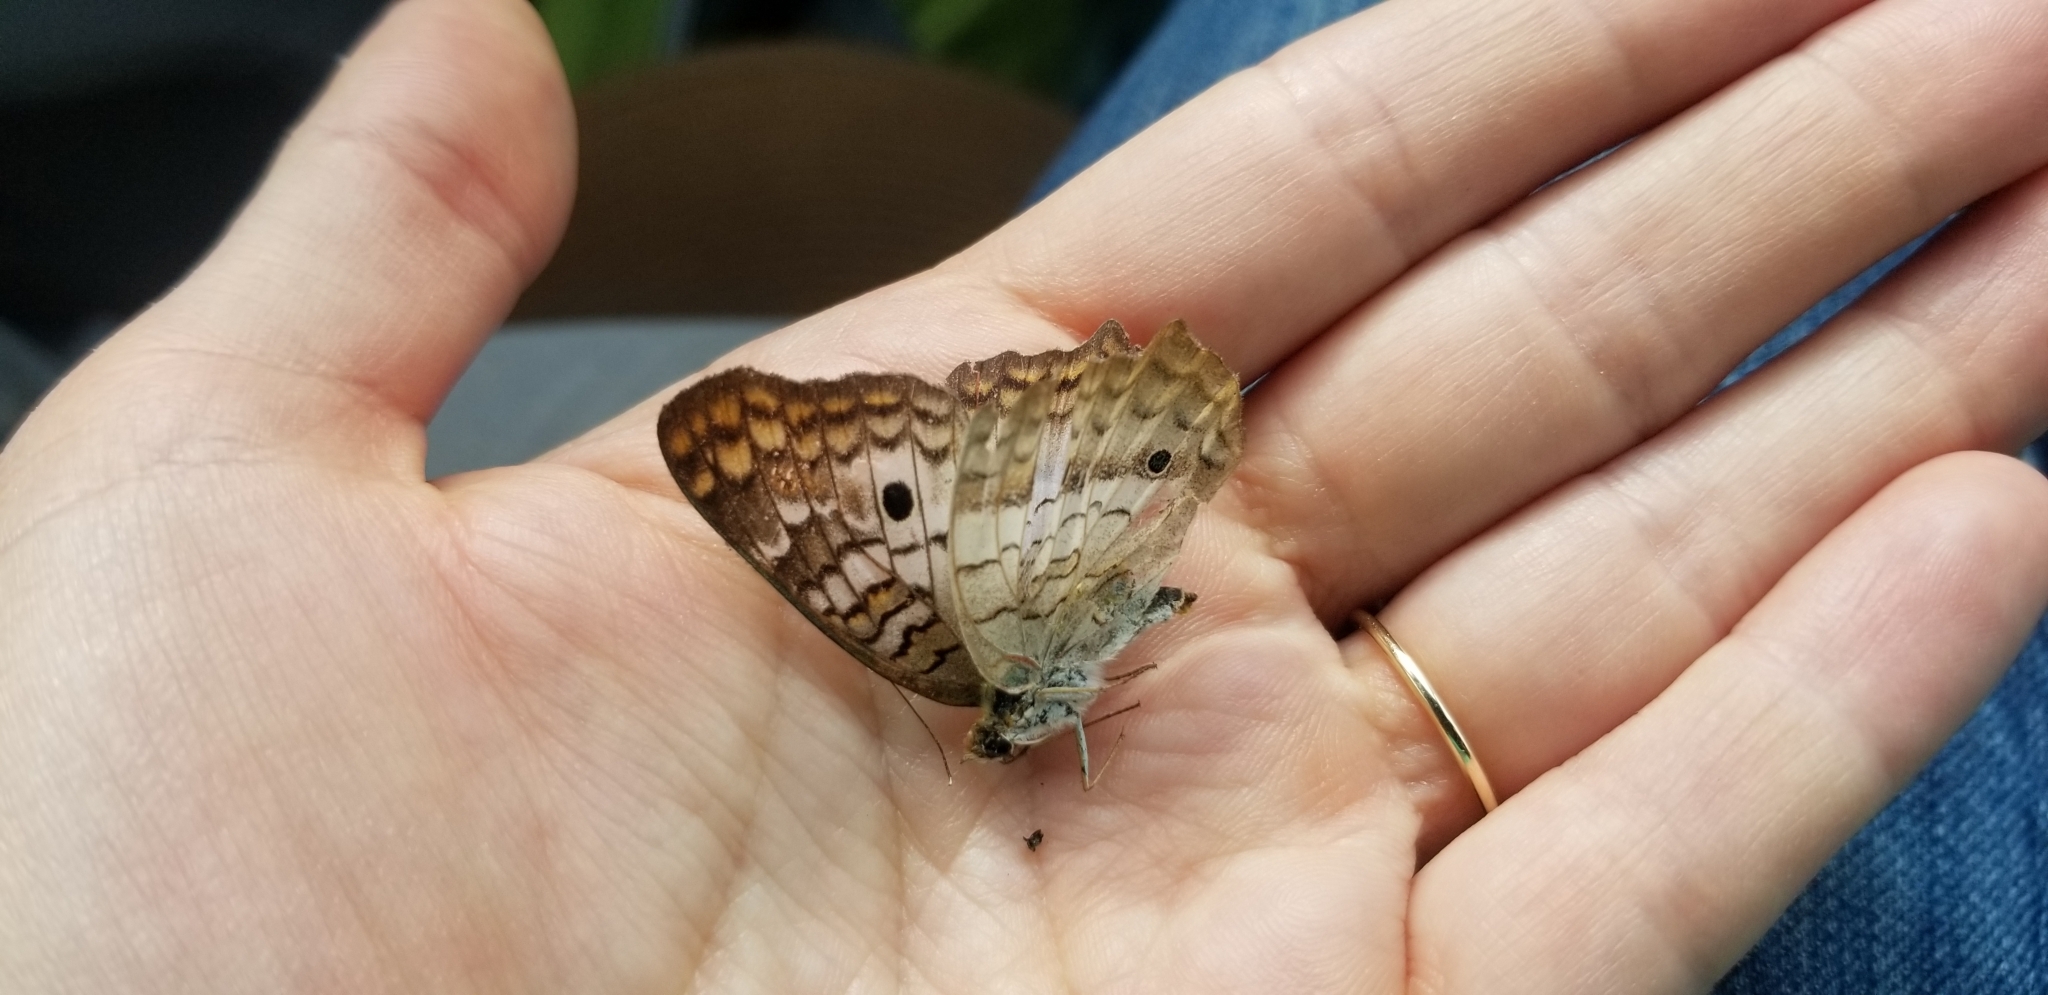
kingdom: Animalia
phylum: Arthropoda
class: Insecta
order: Lepidoptera
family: Nymphalidae
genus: Anartia
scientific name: Anartia jatrophae
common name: White peacock
